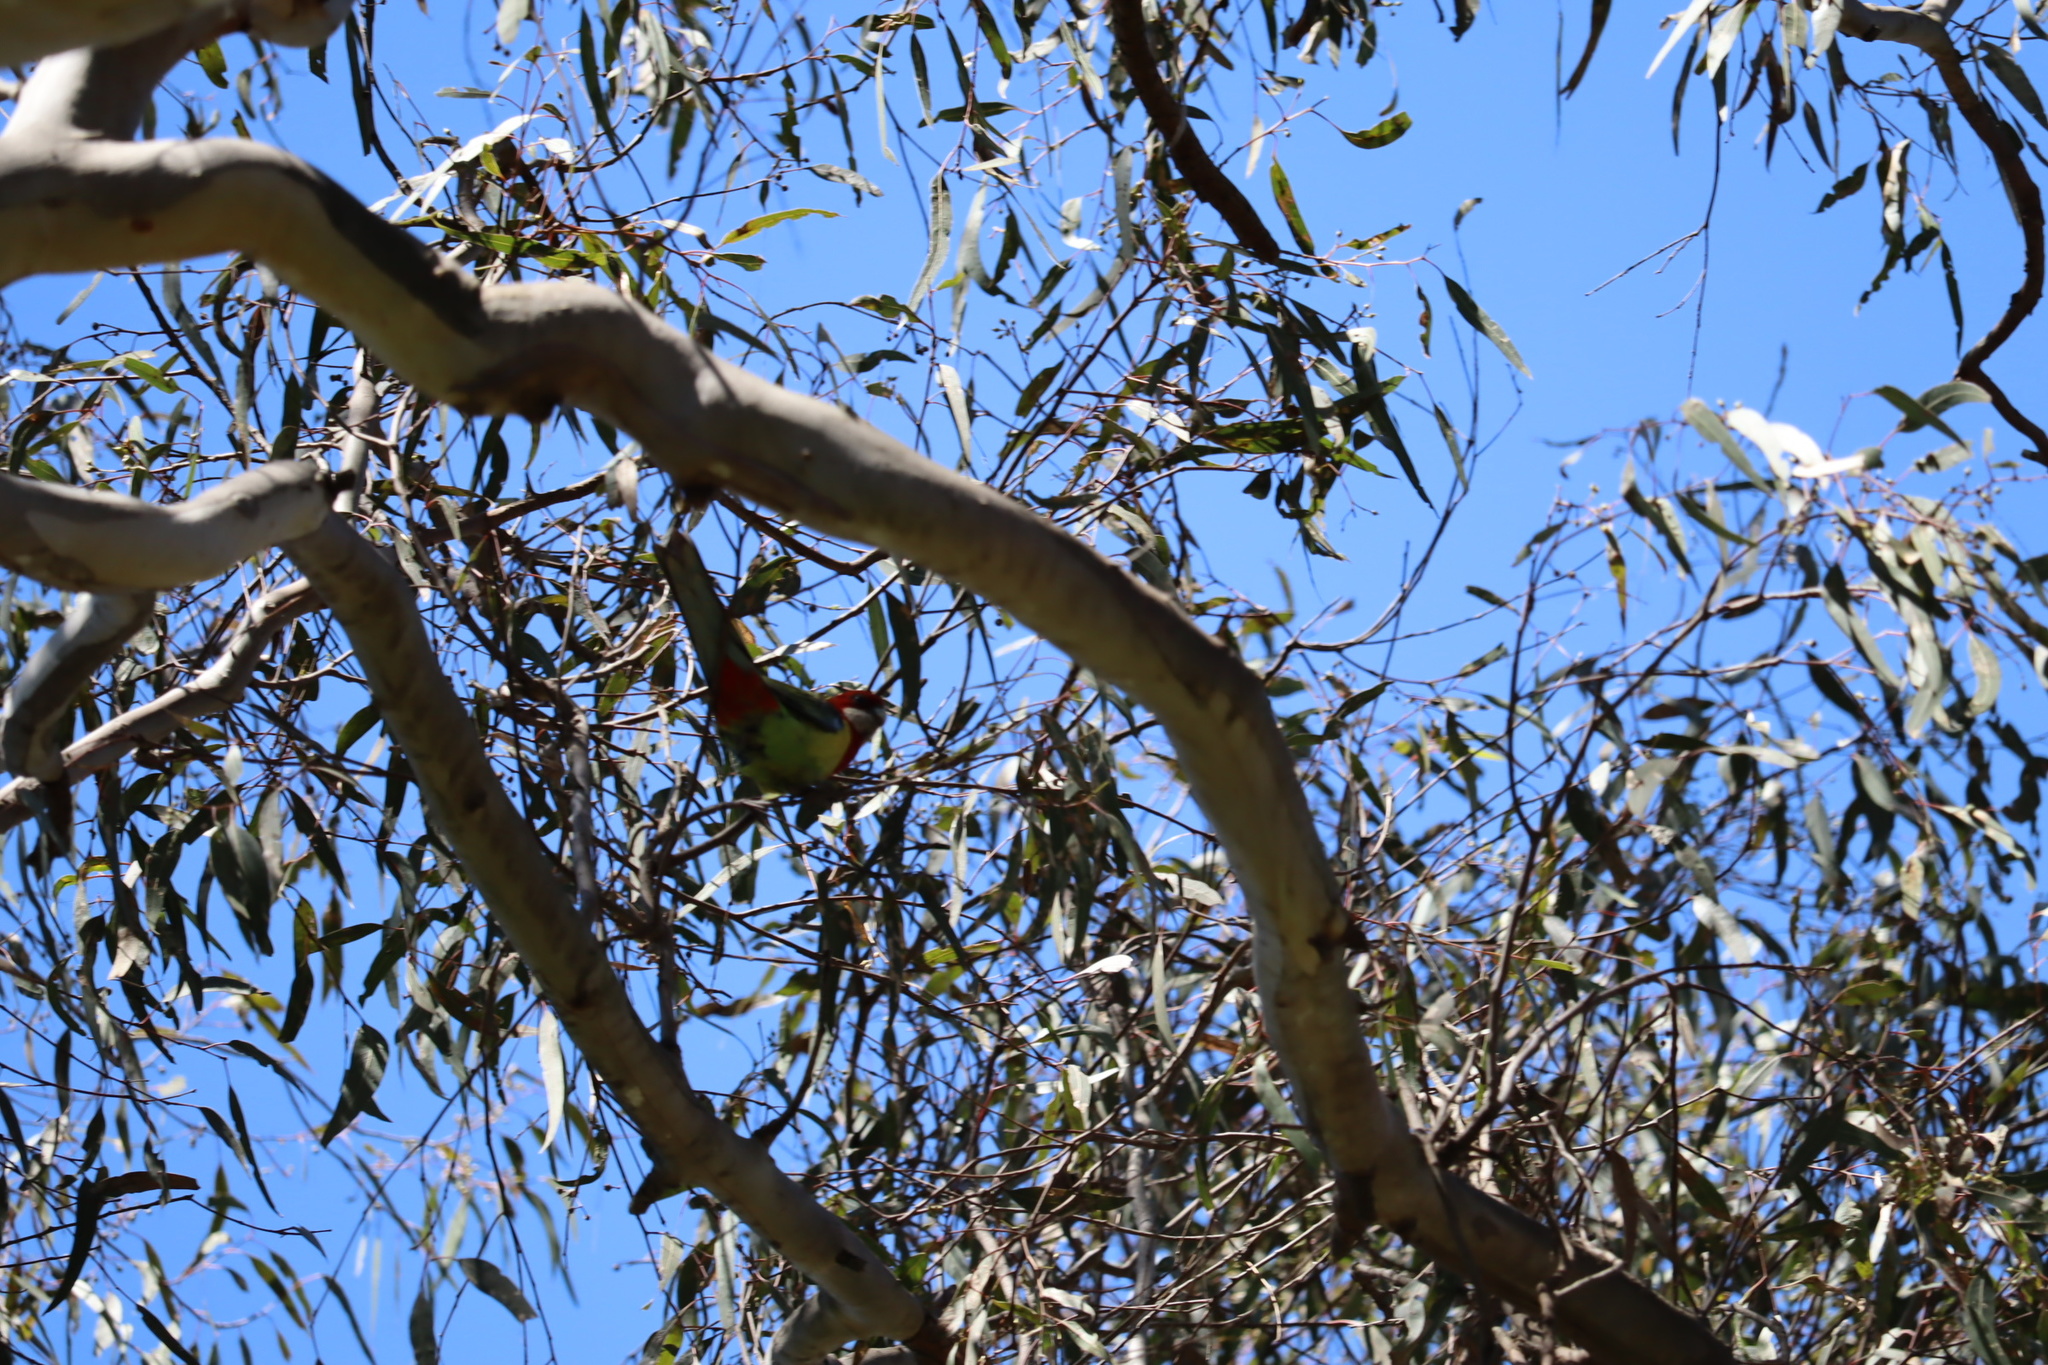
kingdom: Animalia
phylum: Chordata
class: Aves
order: Psittaciformes
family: Psittacidae
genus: Platycercus
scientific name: Platycercus eximius
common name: Eastern rosella
